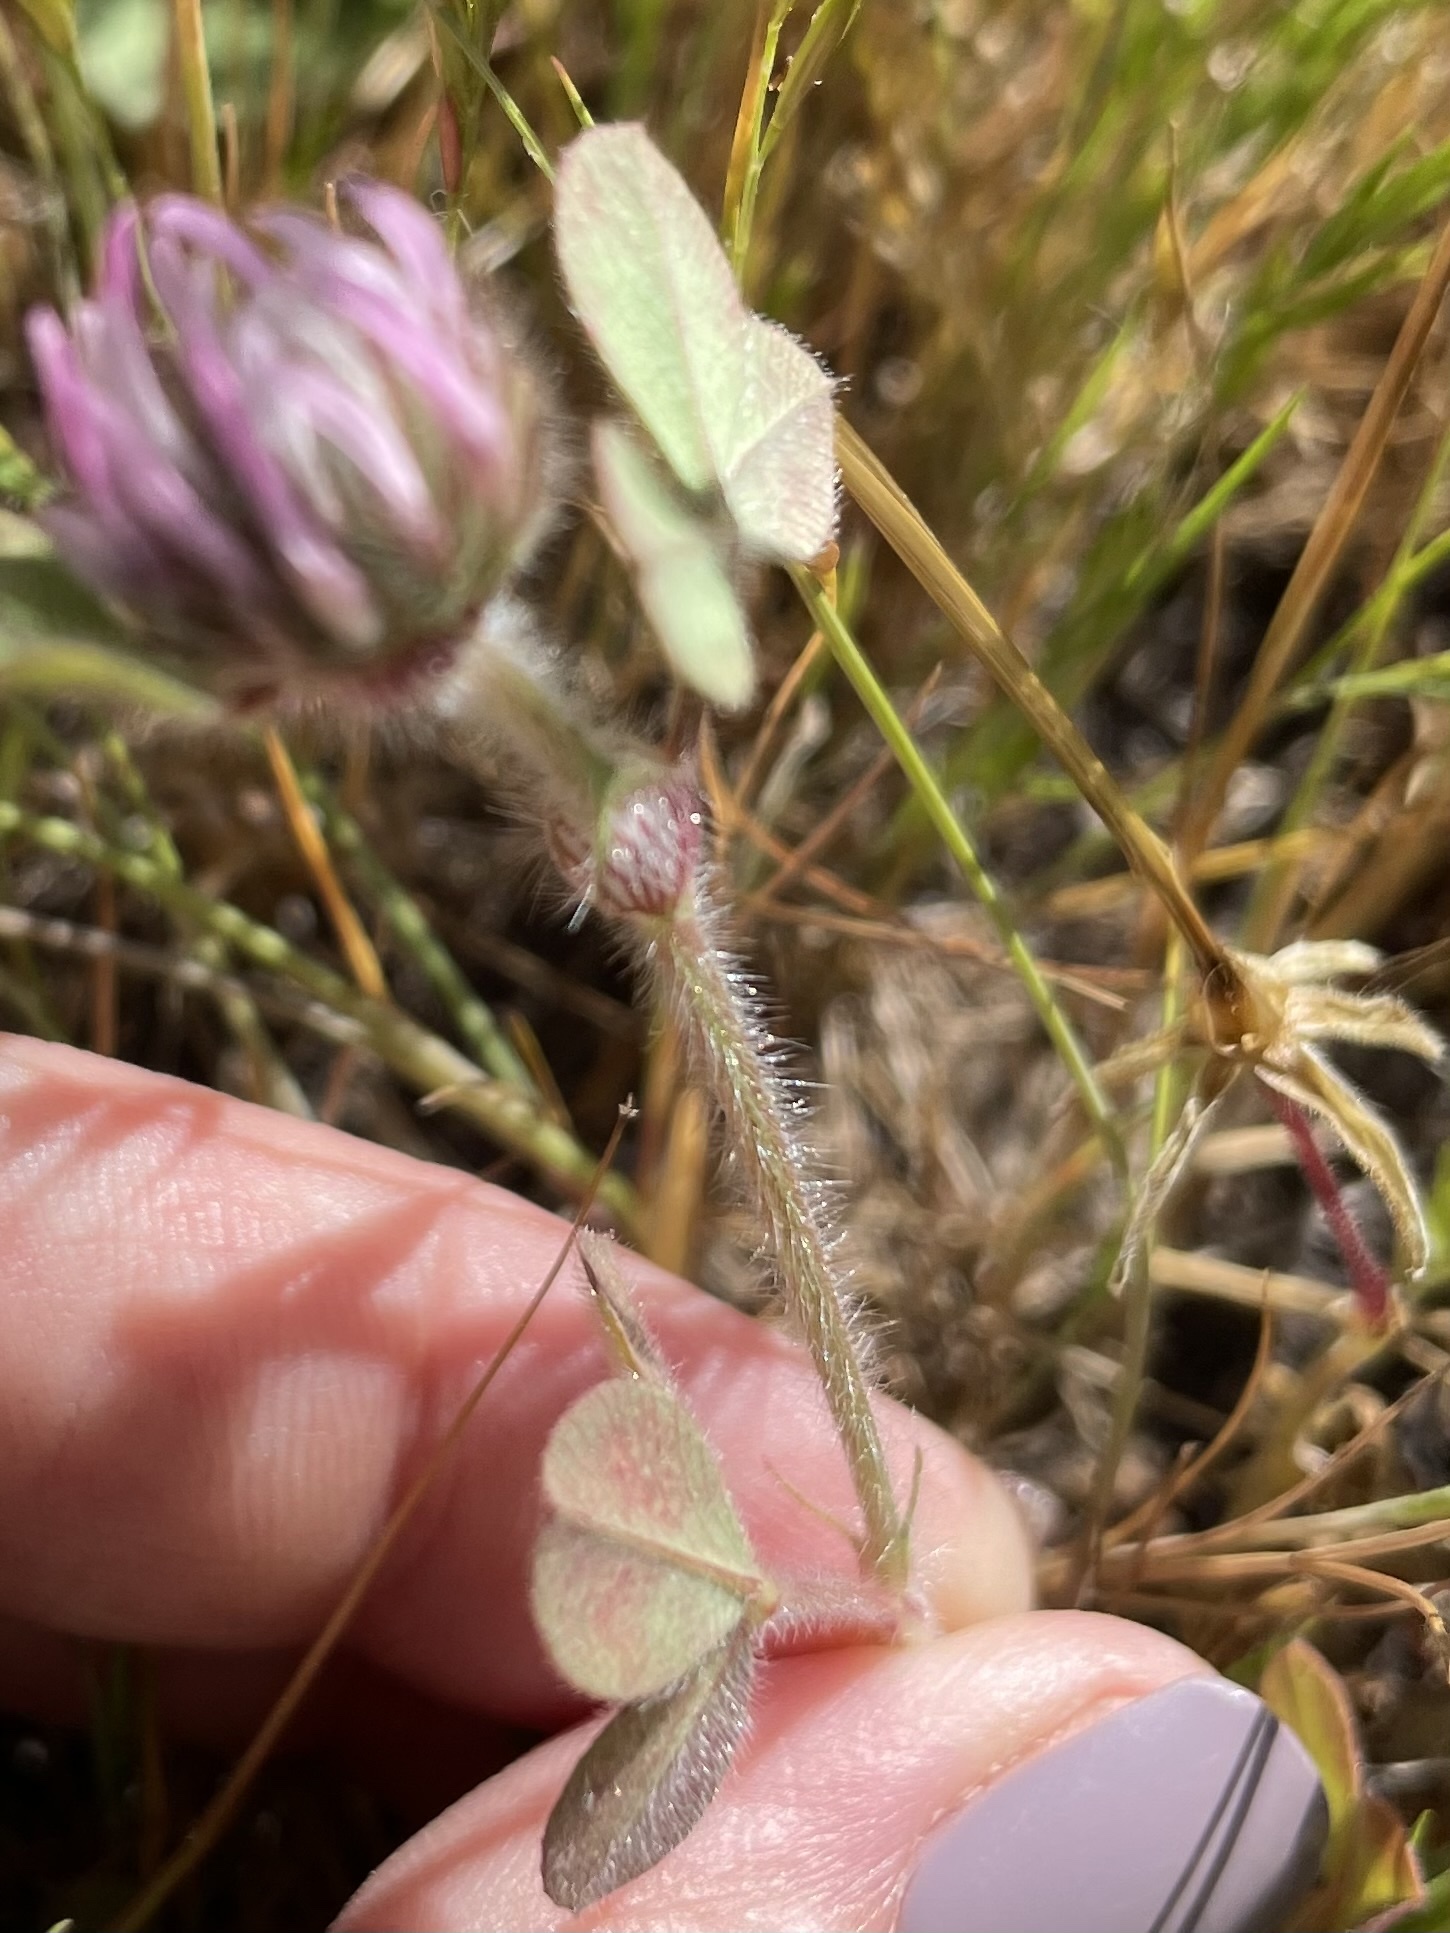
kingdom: Plantae
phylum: Tracheophyta
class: Magnoliopsida
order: Fabales
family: Fabaceae
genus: Trifolium
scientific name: Trifolium hirtum
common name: Rose clover
